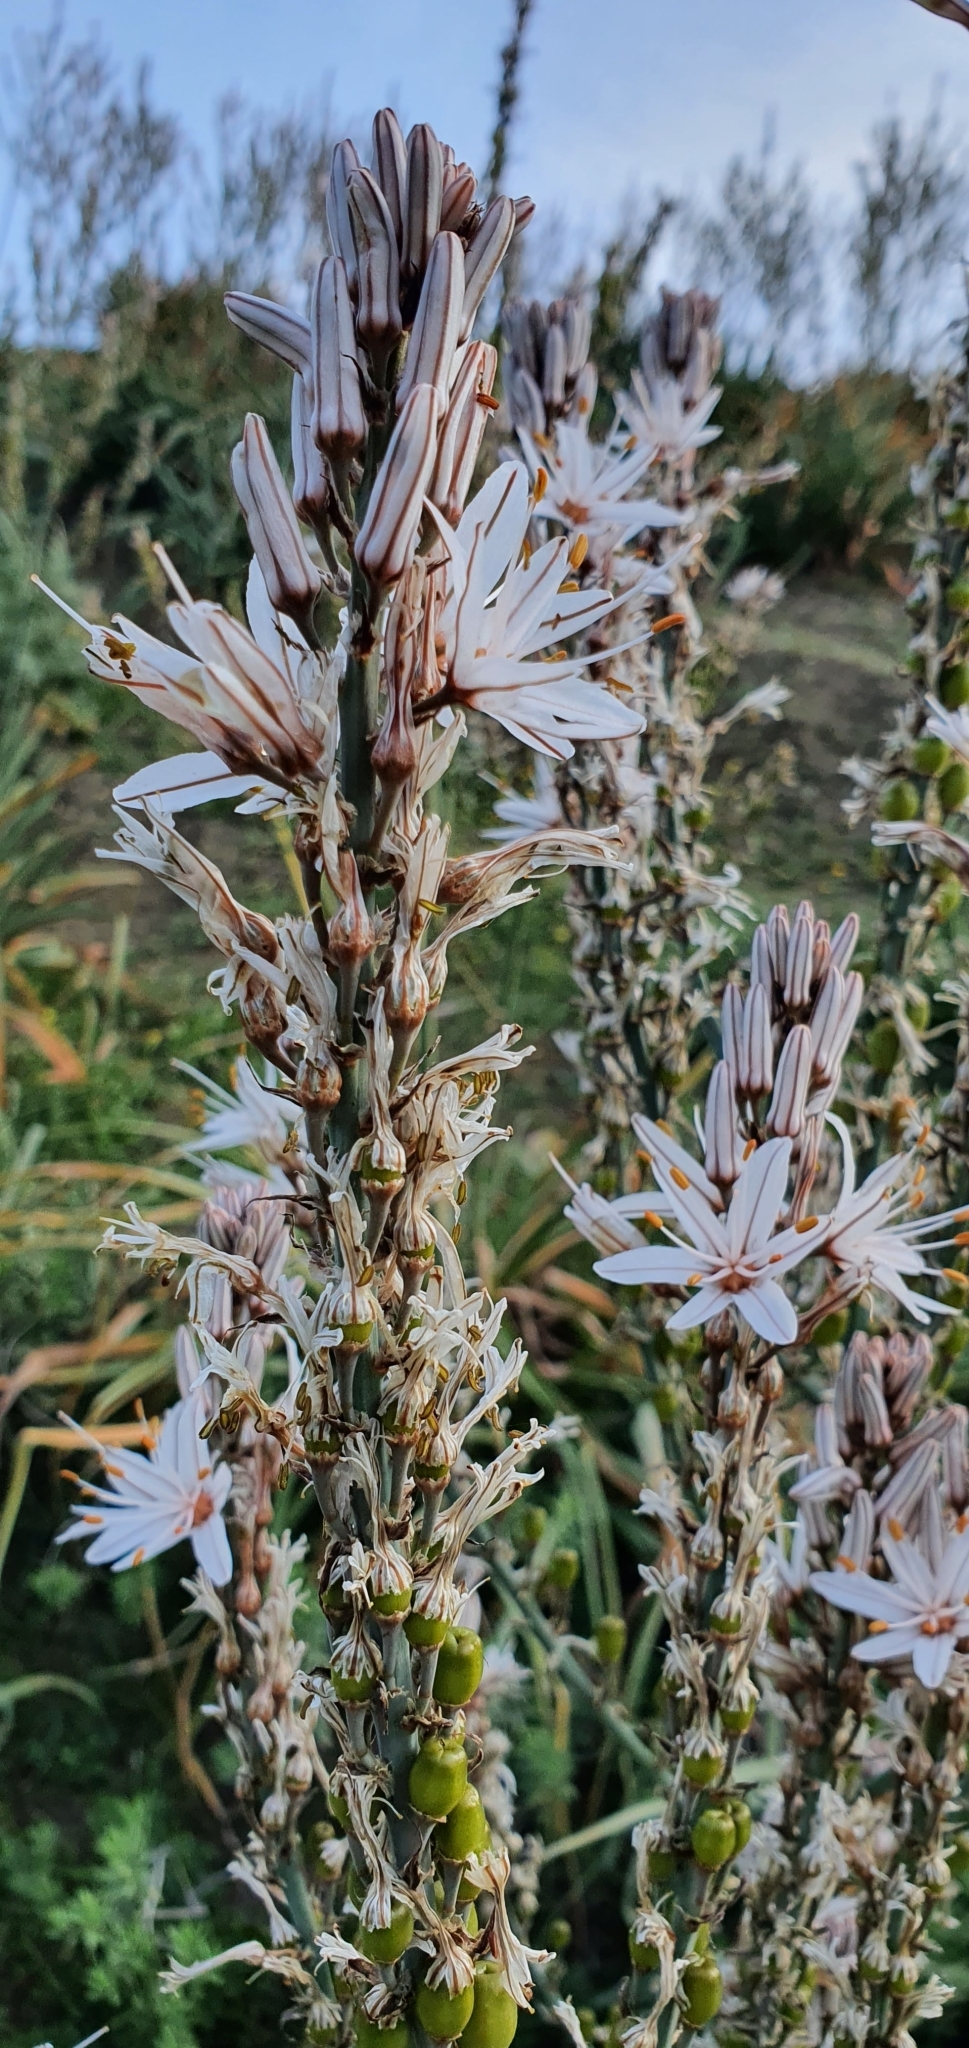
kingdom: Plantae
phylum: Tracheophyta
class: Liliopsida
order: Asparagales
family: Asphodelaceae
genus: Asphodelus
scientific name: Asphodelus ramosus
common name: Silverrod
